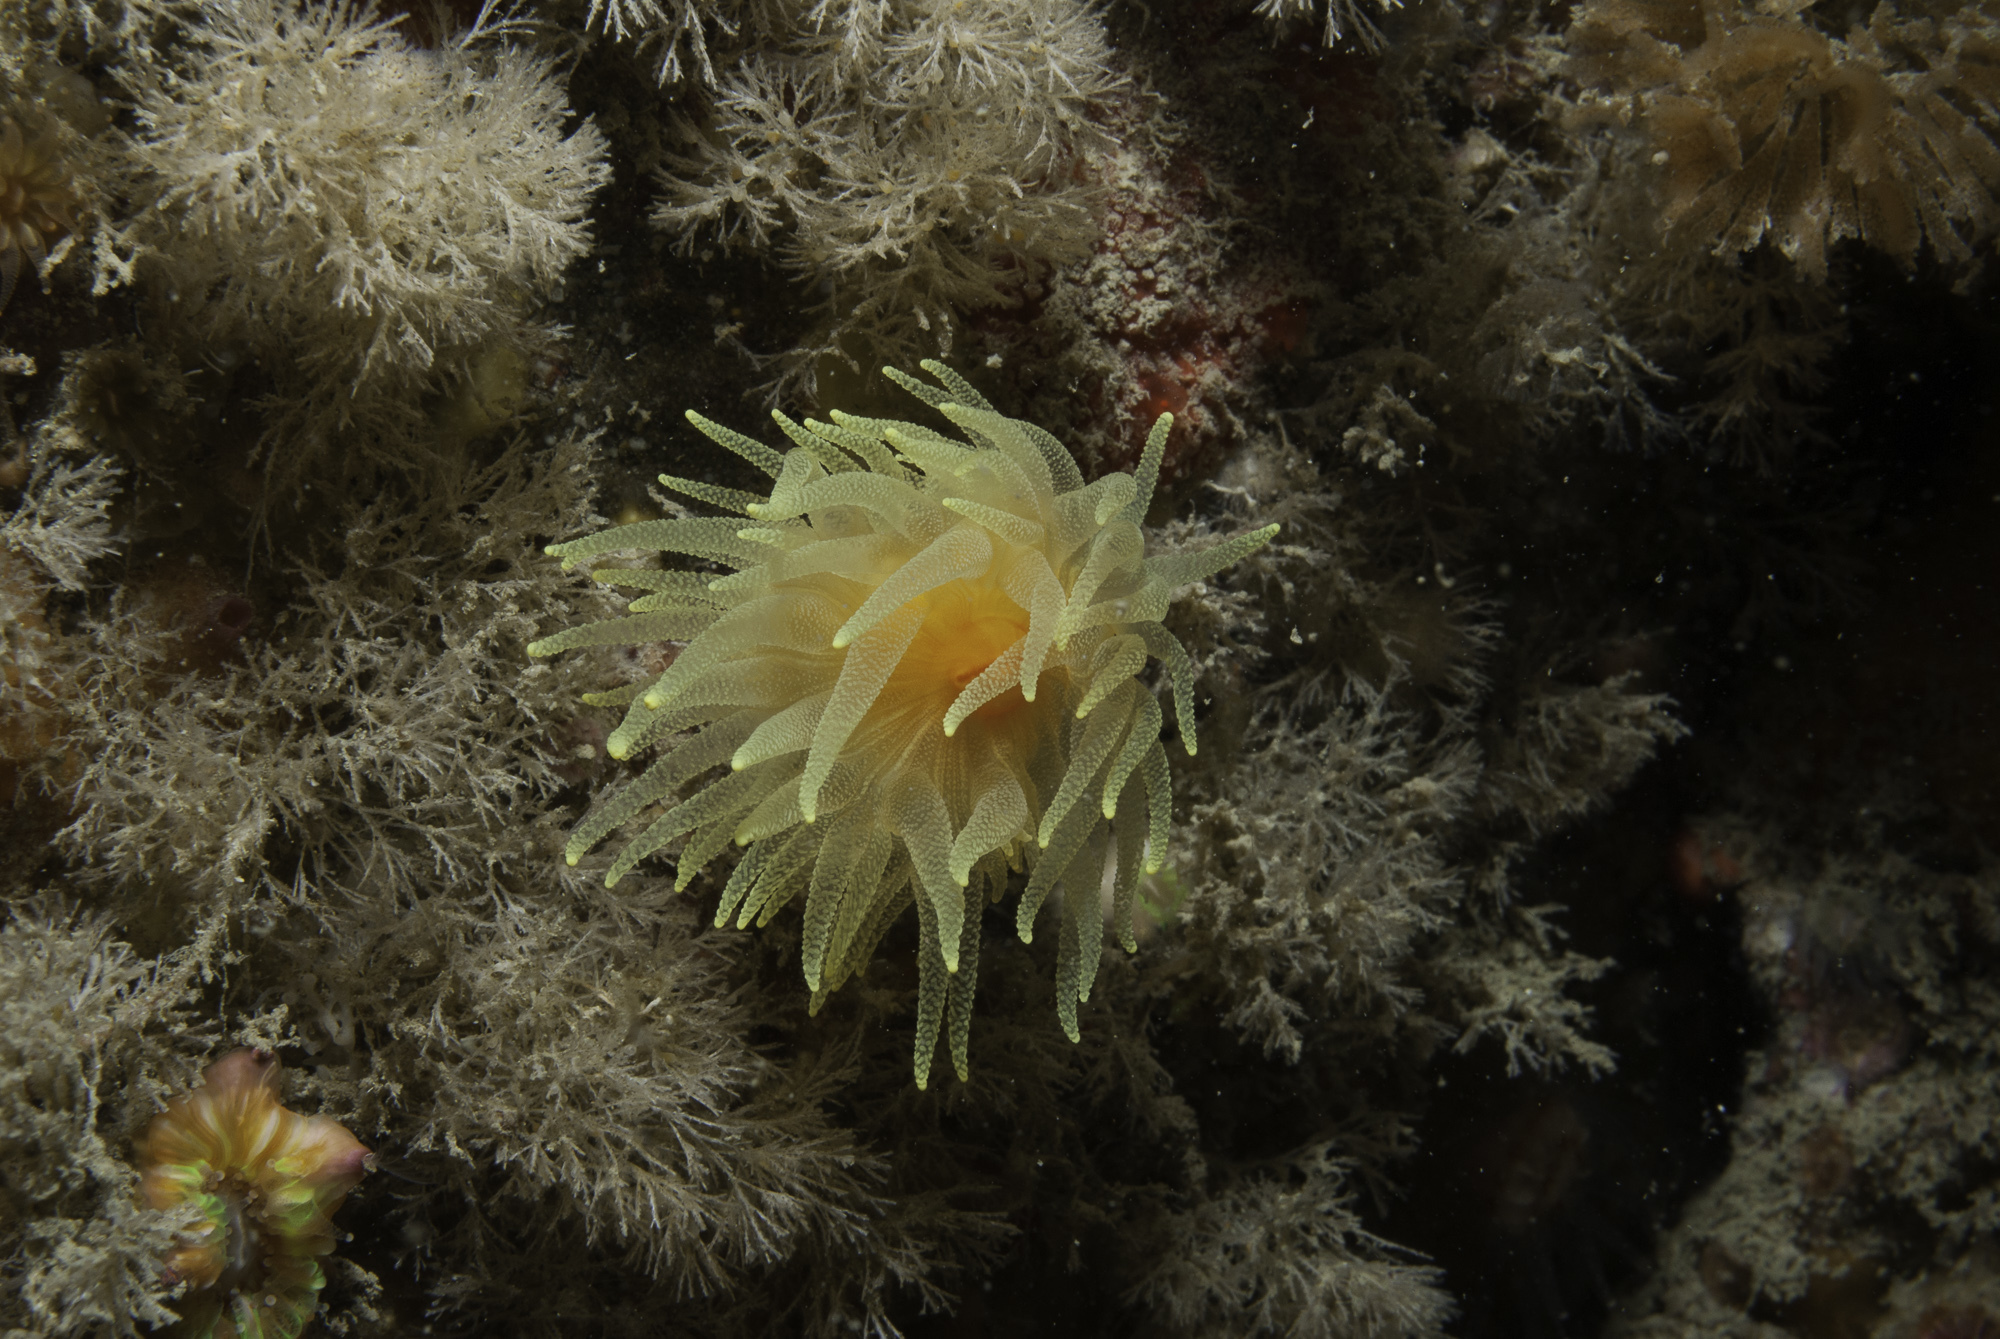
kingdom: Animalia
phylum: Cnidaria
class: Anthozoa
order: Scleractinia
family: Dendrophylliidae
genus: Leptopsammia
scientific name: Leptopsammia pruvoti
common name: Sunset cup coral
